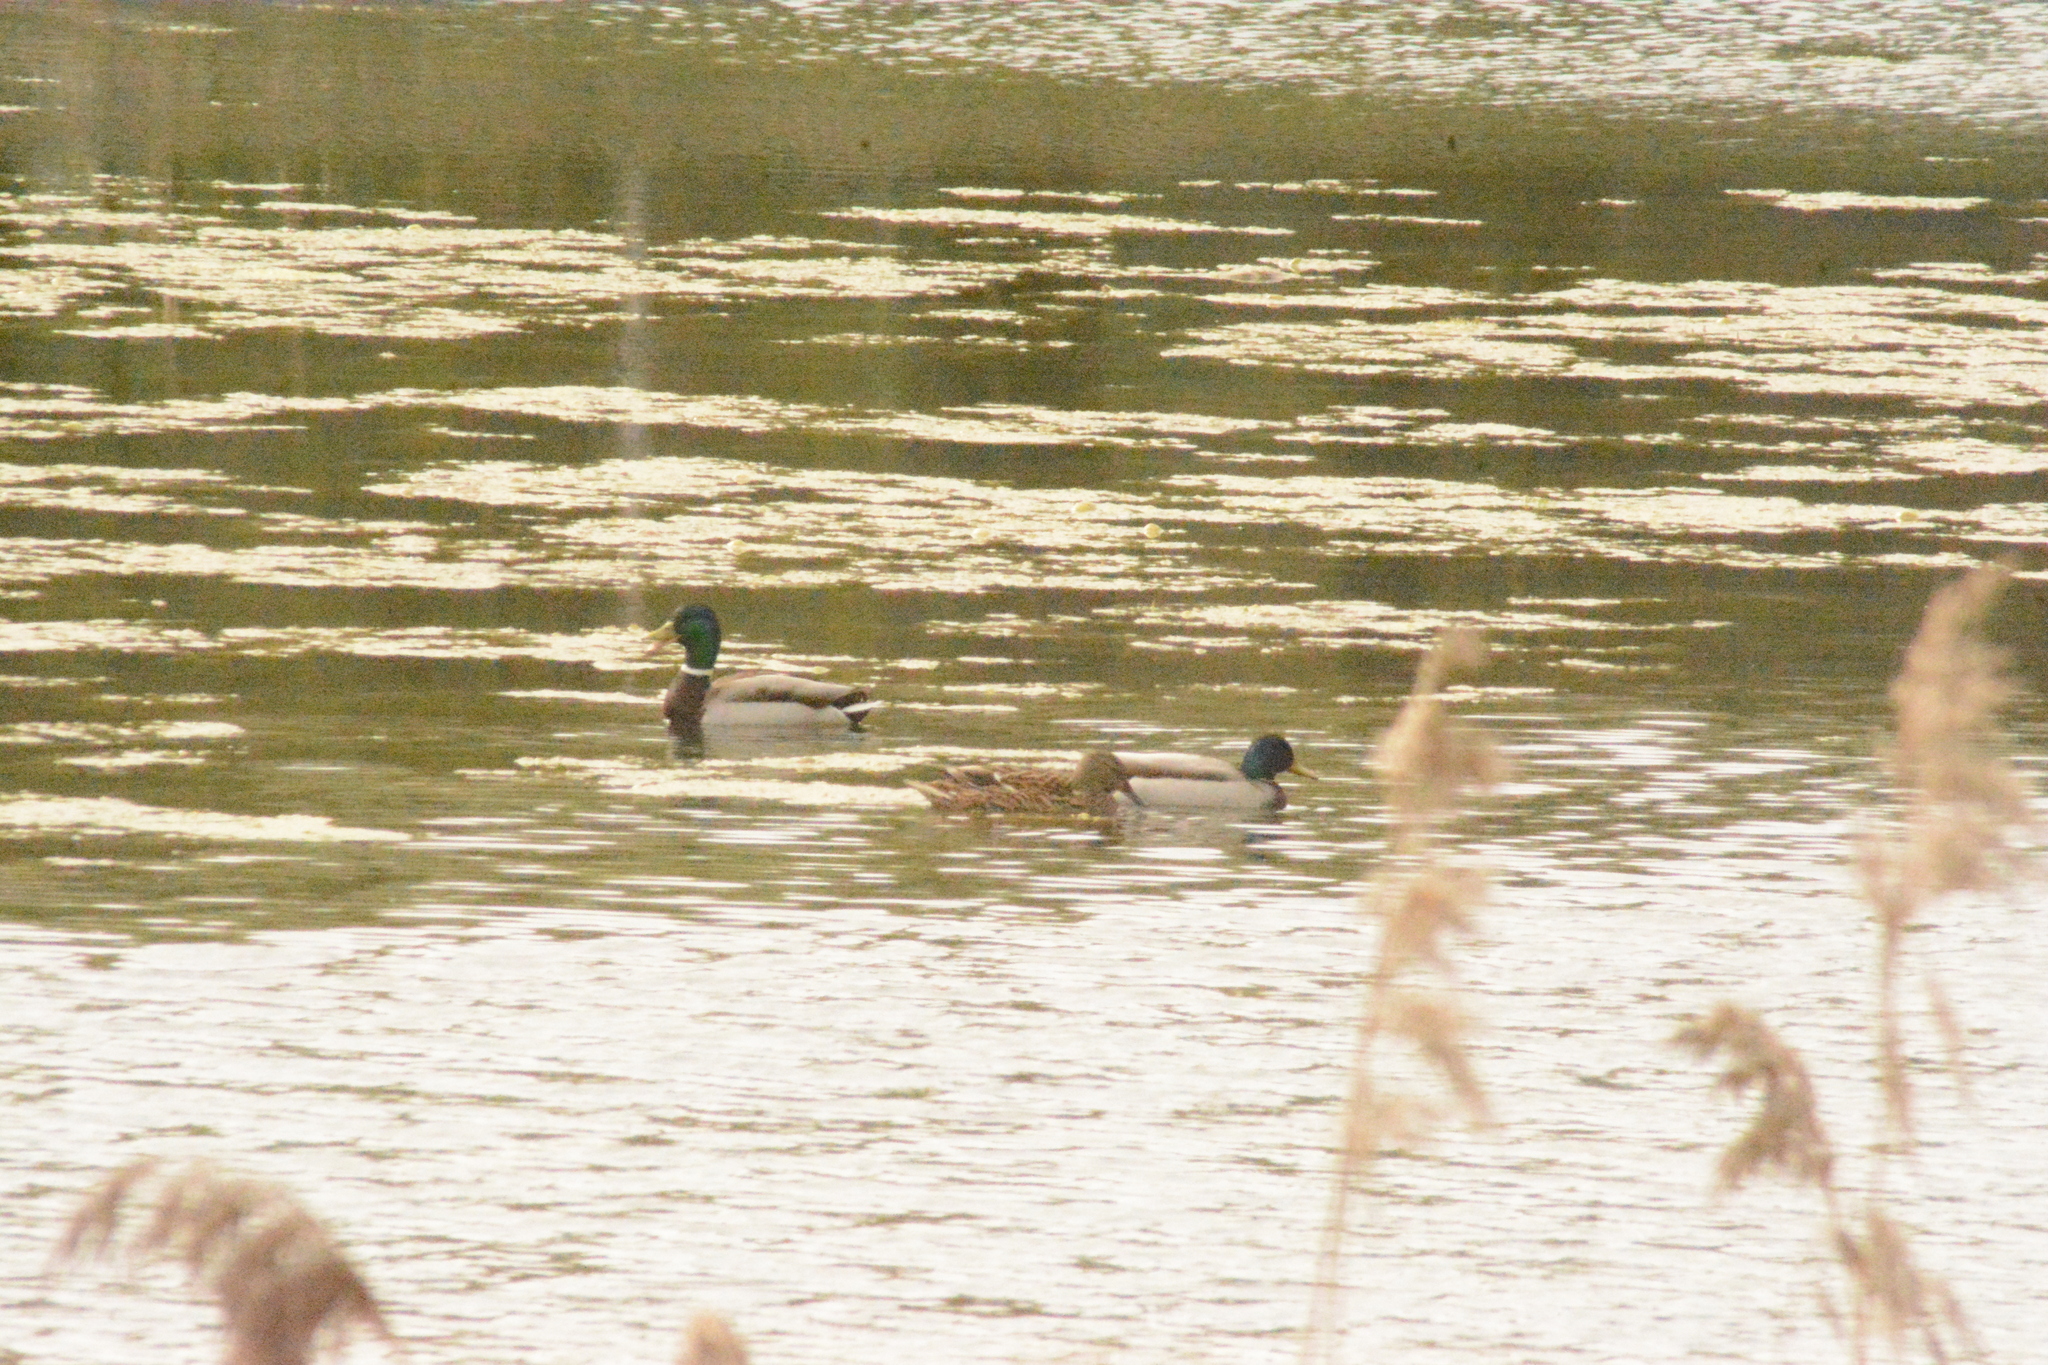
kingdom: Animalia
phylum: Chordata
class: Aves
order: Anseriformes
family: Anatidae
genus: Anas
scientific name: Anas platyrhynchos
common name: Mallard
